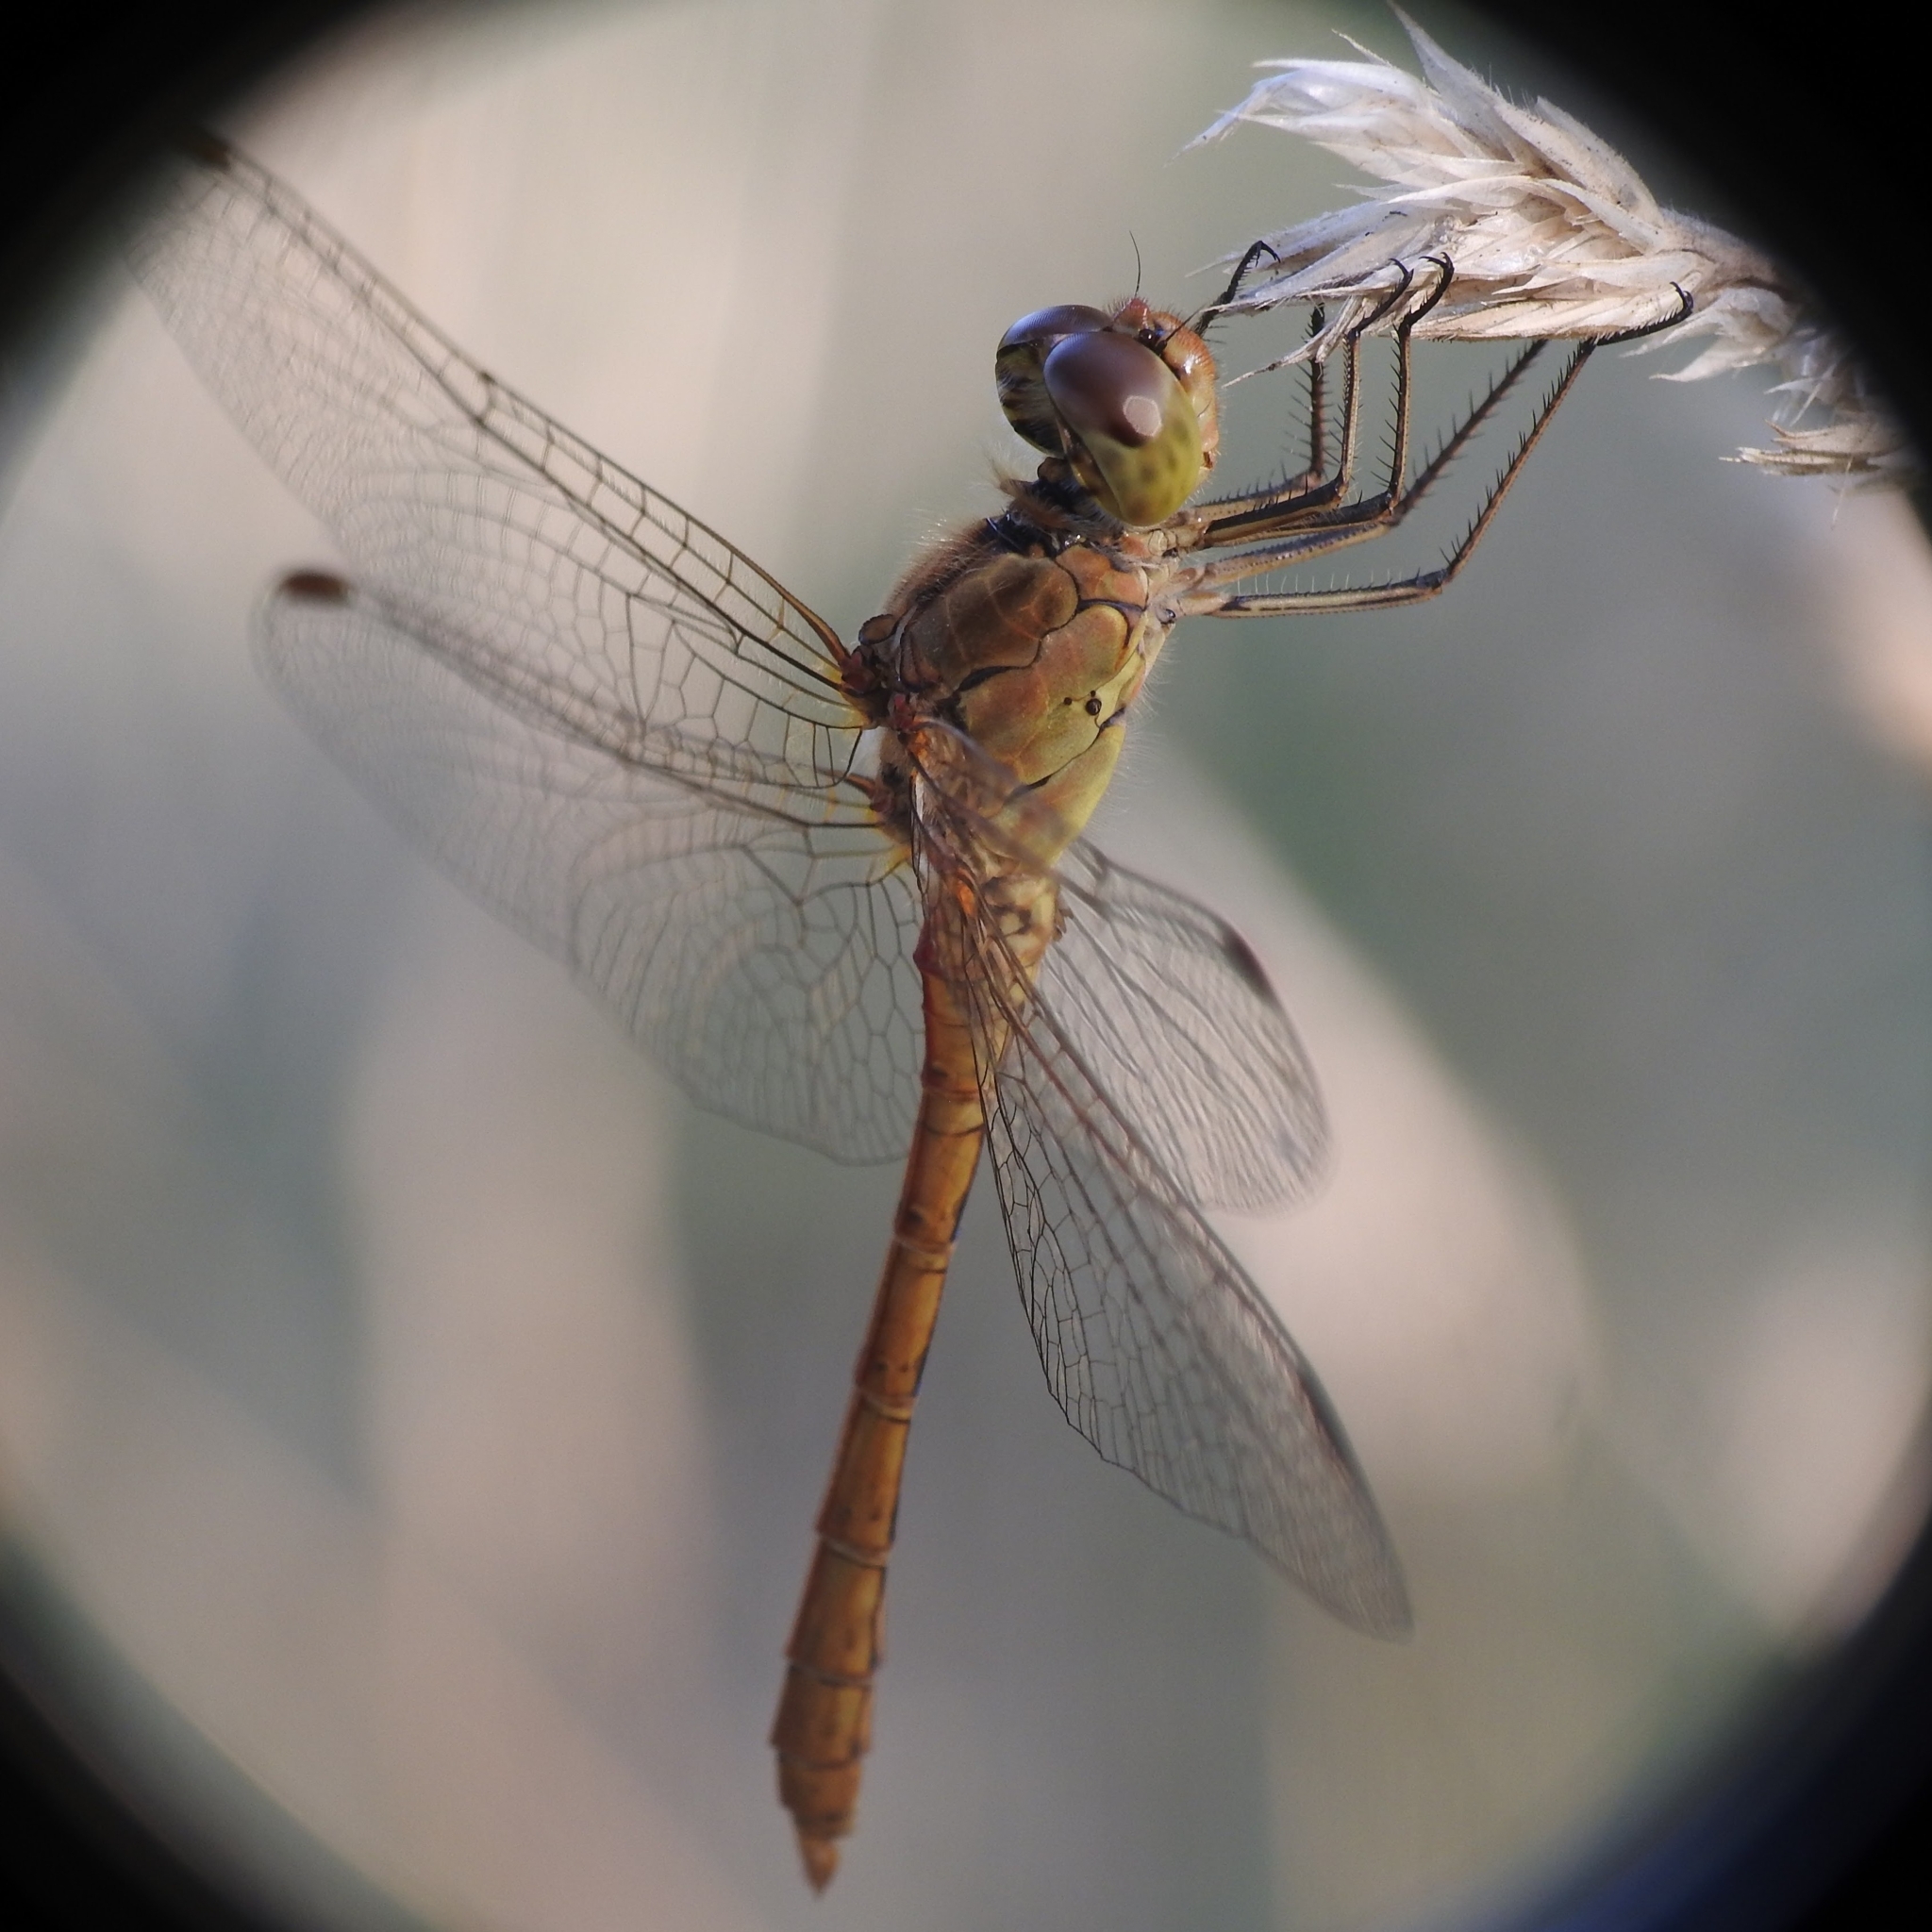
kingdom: Animalia
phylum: Arthropoda
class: Insecta
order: Odonata
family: Libellulidae
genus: Sympetrum
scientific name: Sympetrum meridionale
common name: Southern darter
